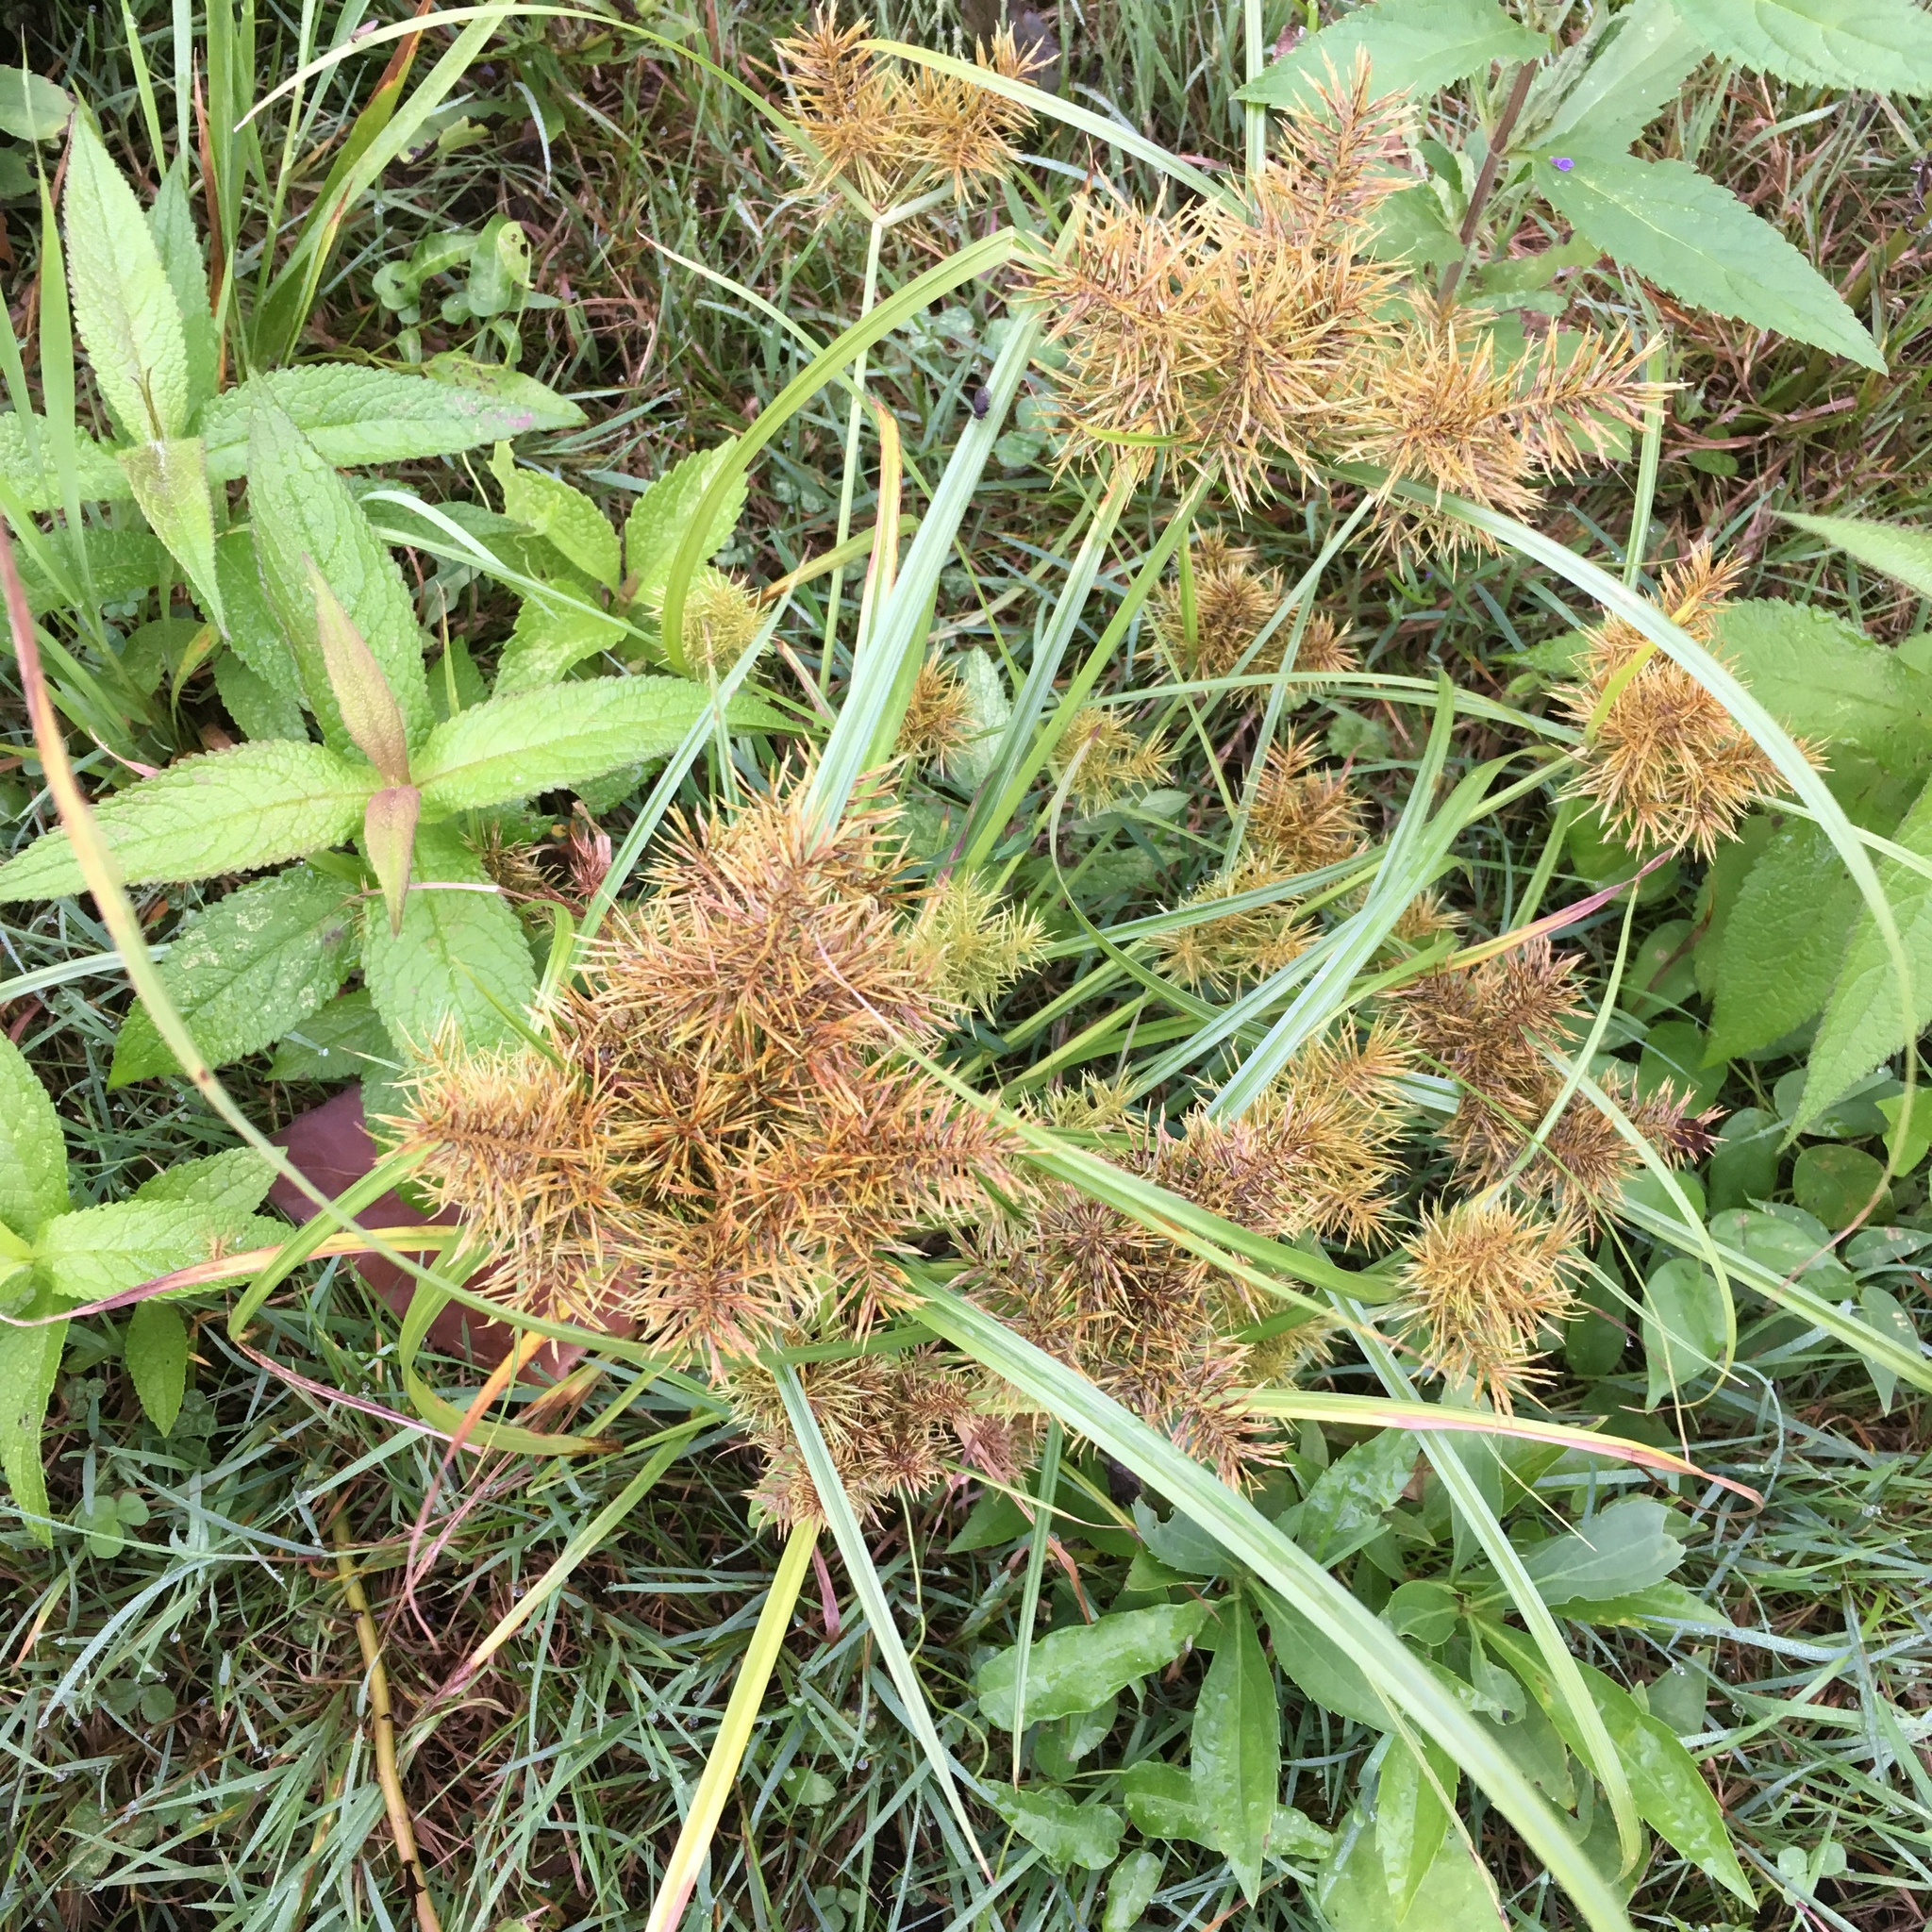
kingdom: Plantae
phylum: Tracheophyta
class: Liliopsida
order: Poales
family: Cyperaceae
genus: Cyperus
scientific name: Cyperus odoratus
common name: Fragrant flatsedge
